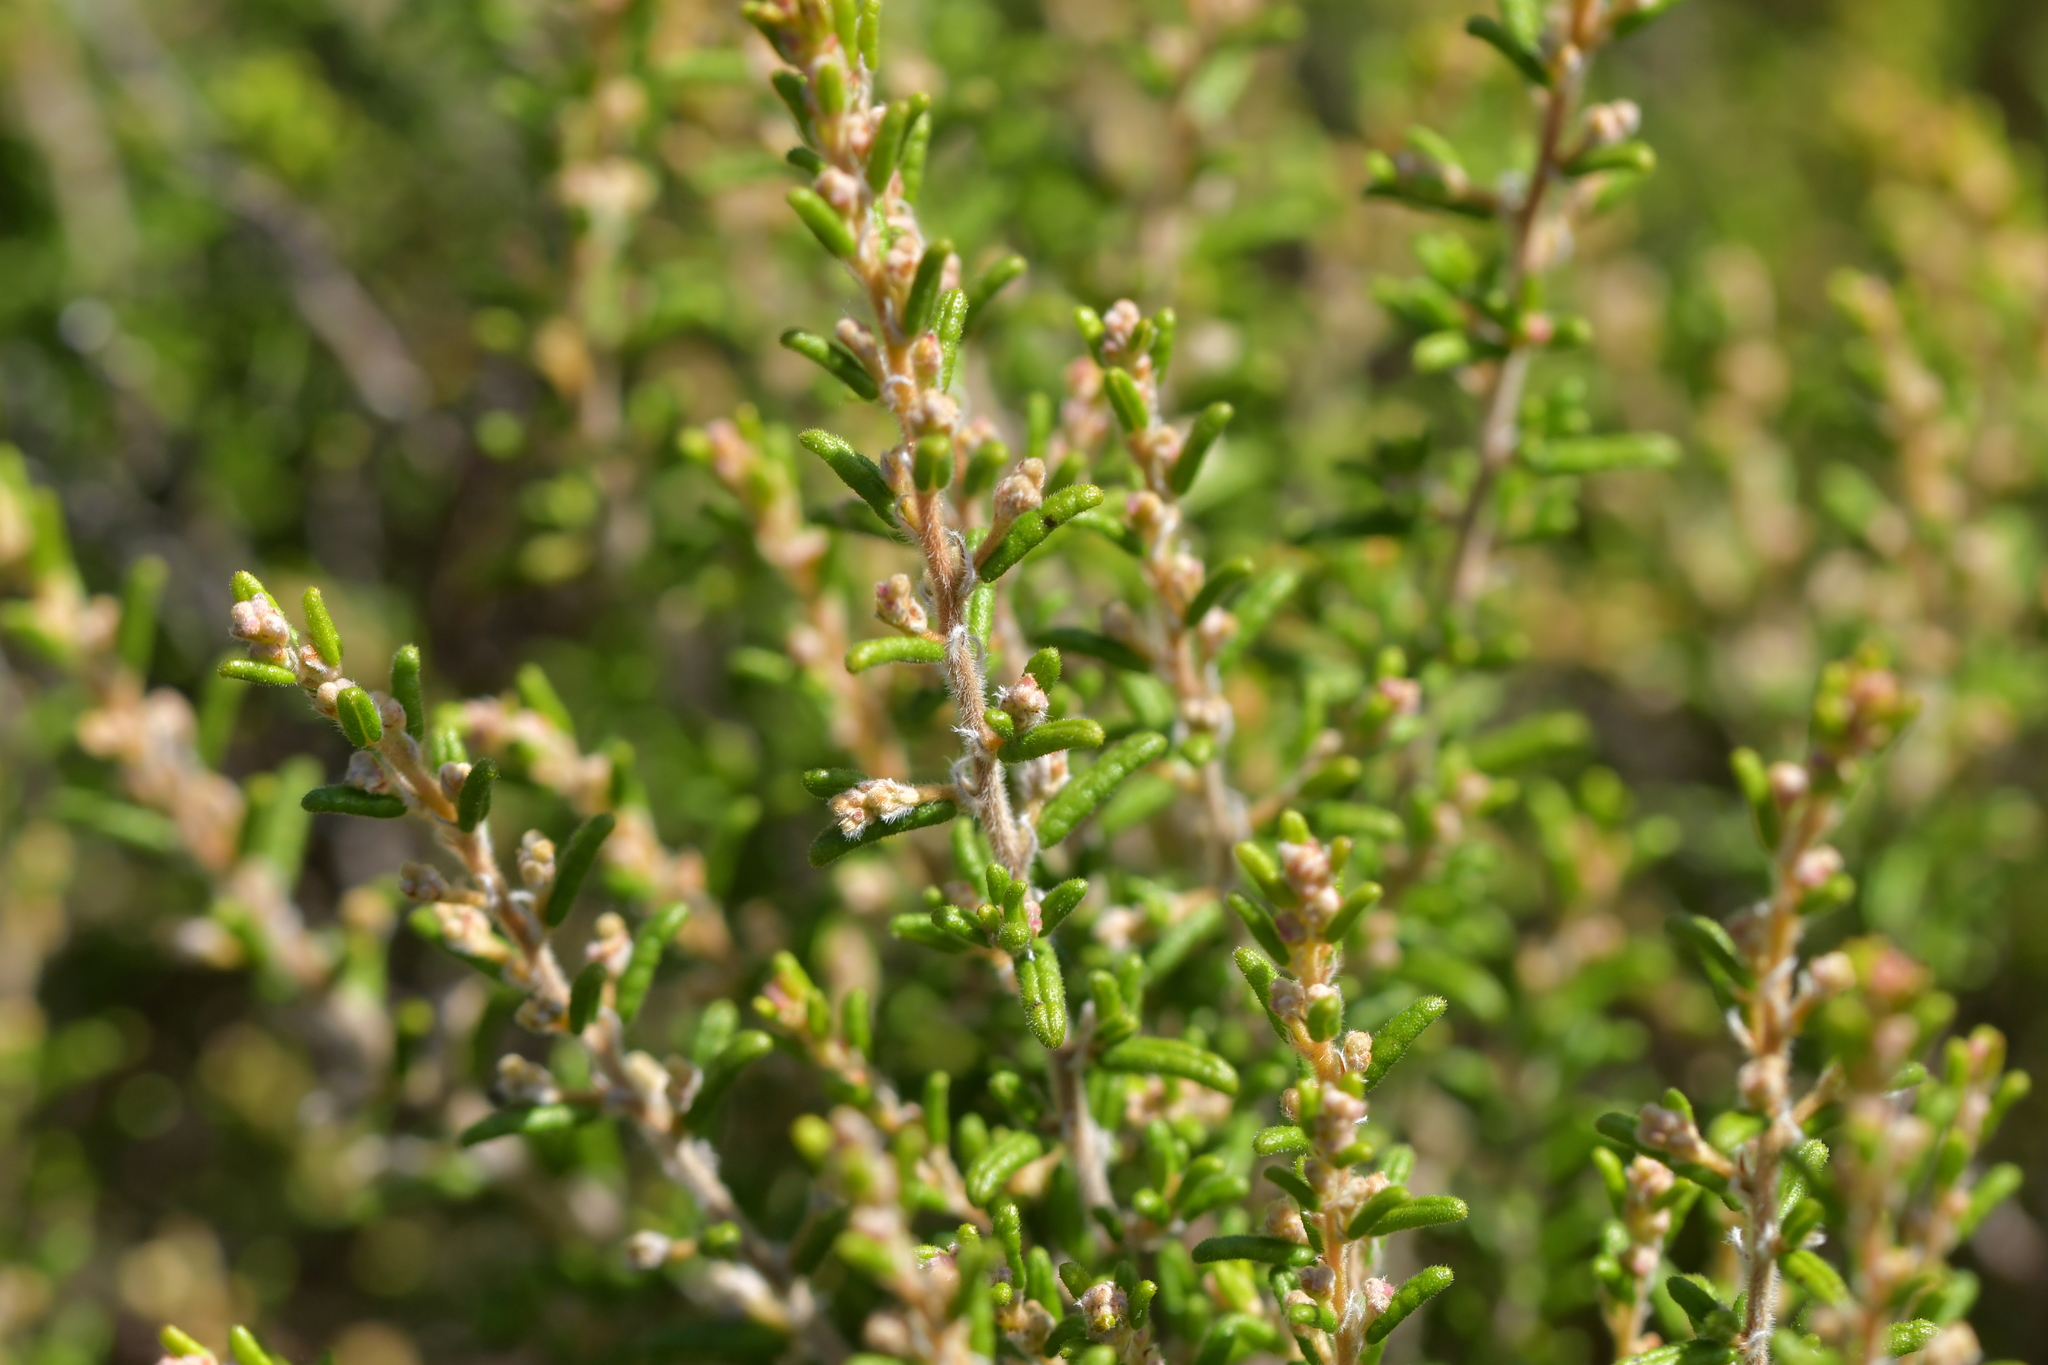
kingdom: Plantae
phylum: Tracheophyta
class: Magnoliopsida
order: Rosales
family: Rhamnaceae
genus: Pomaderris
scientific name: Pomaderris amoena
